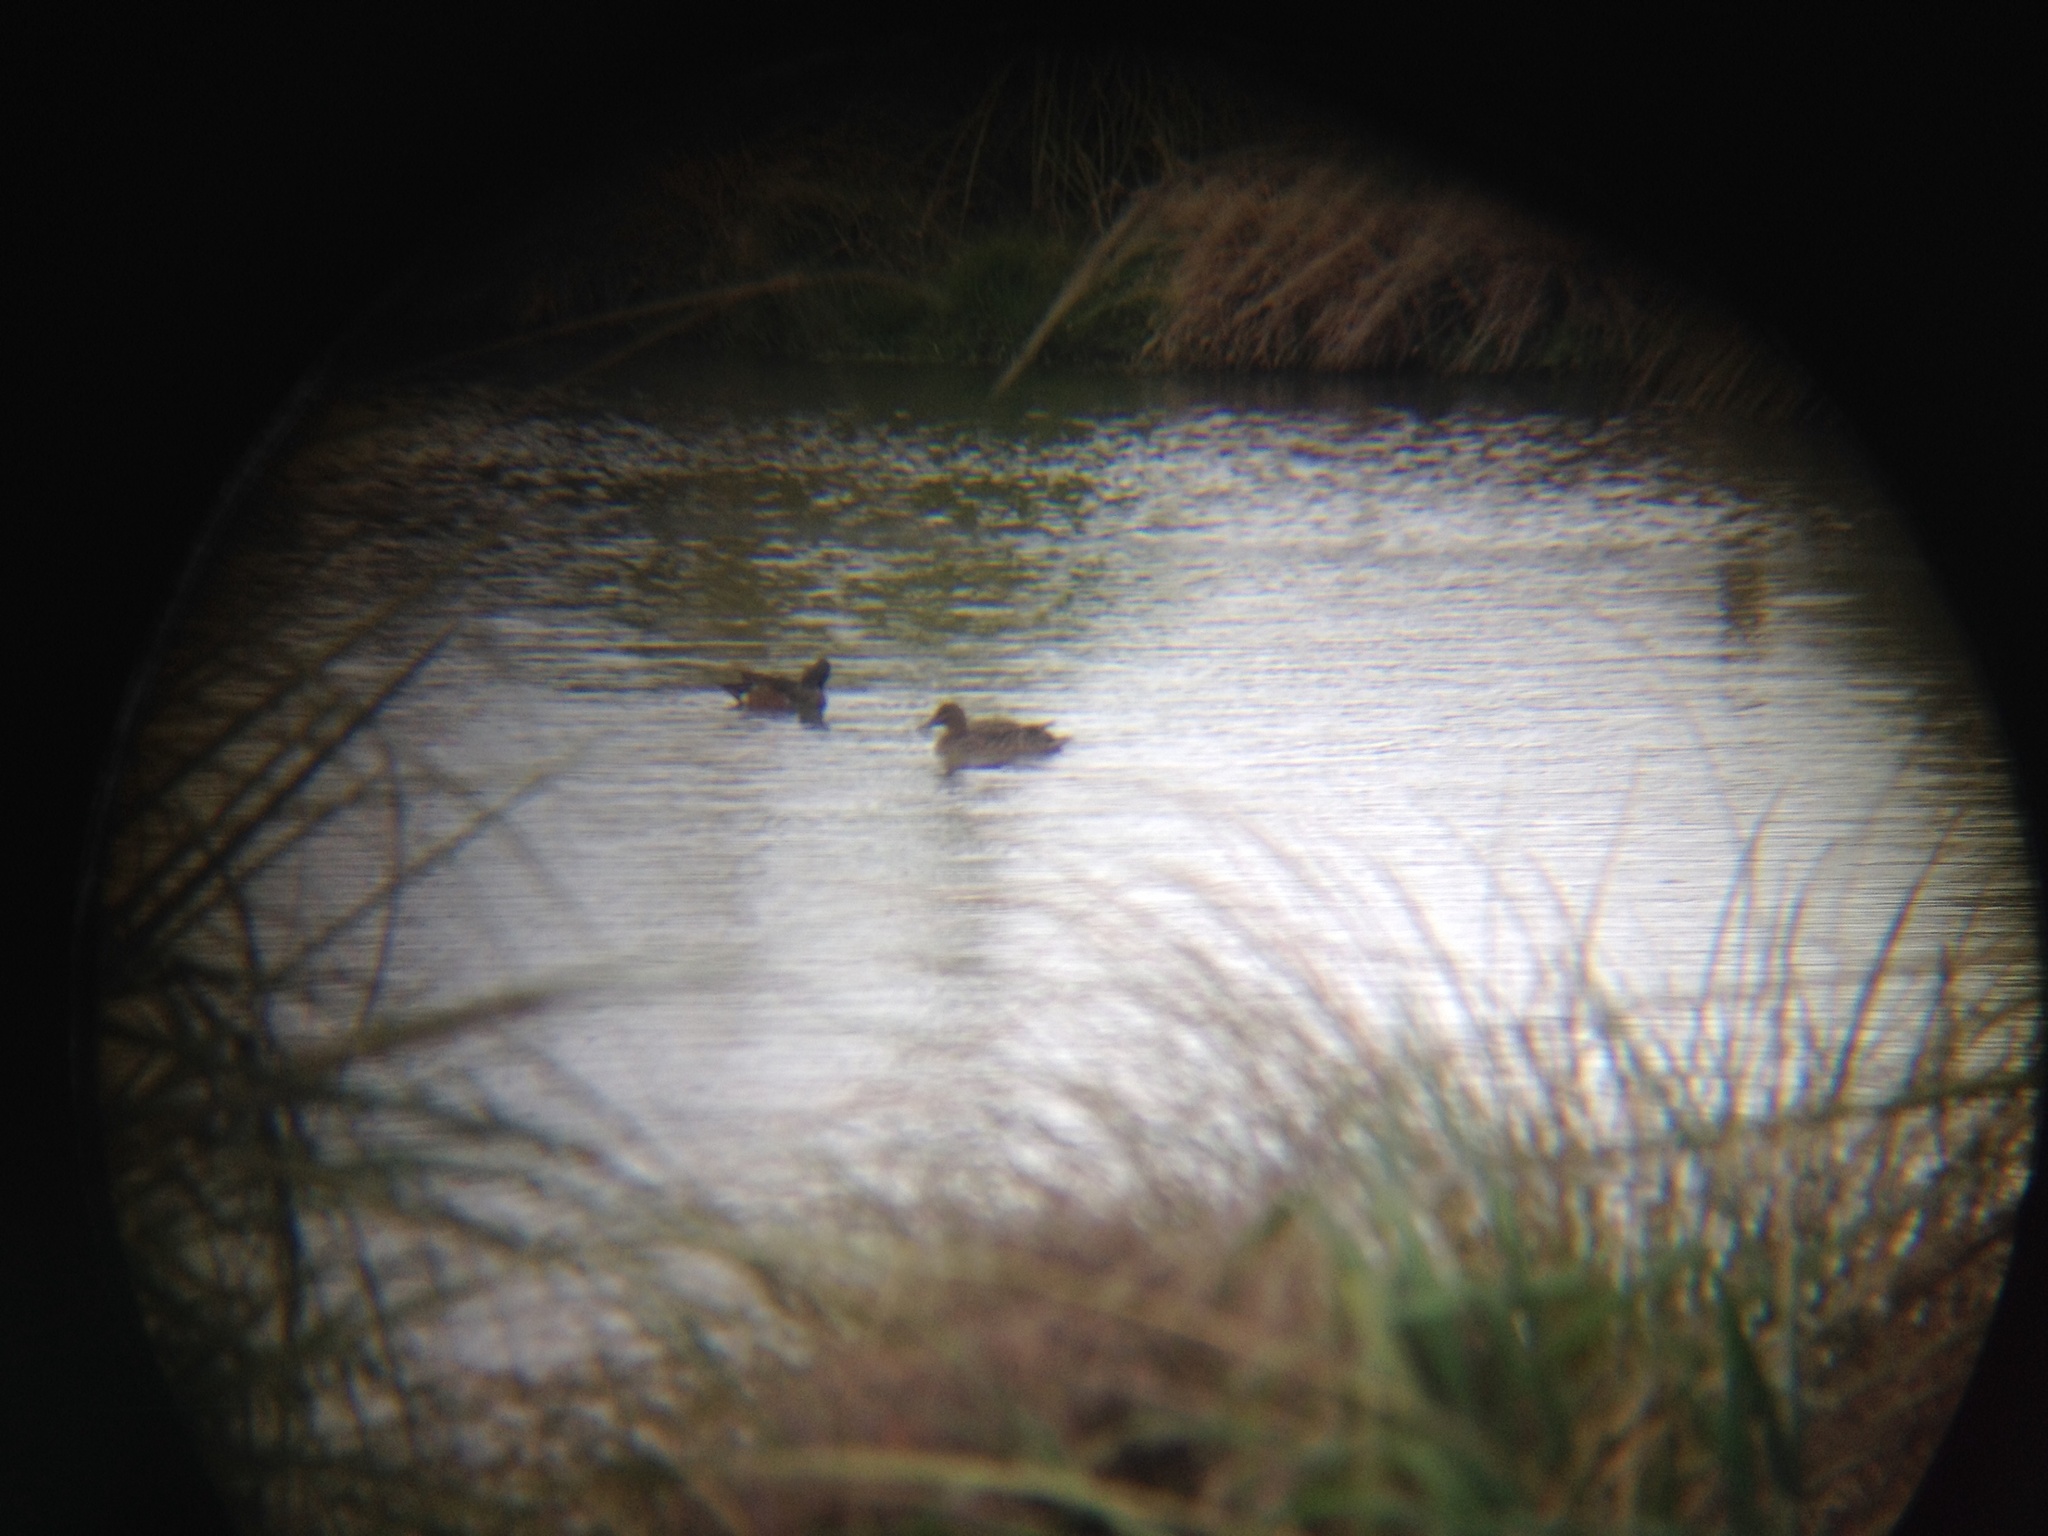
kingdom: Animalia
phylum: Chordata
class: Aves
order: Anseriformes
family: Anatidae
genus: Spatula
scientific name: Spatula rhynchotis
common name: Australian shoveler
